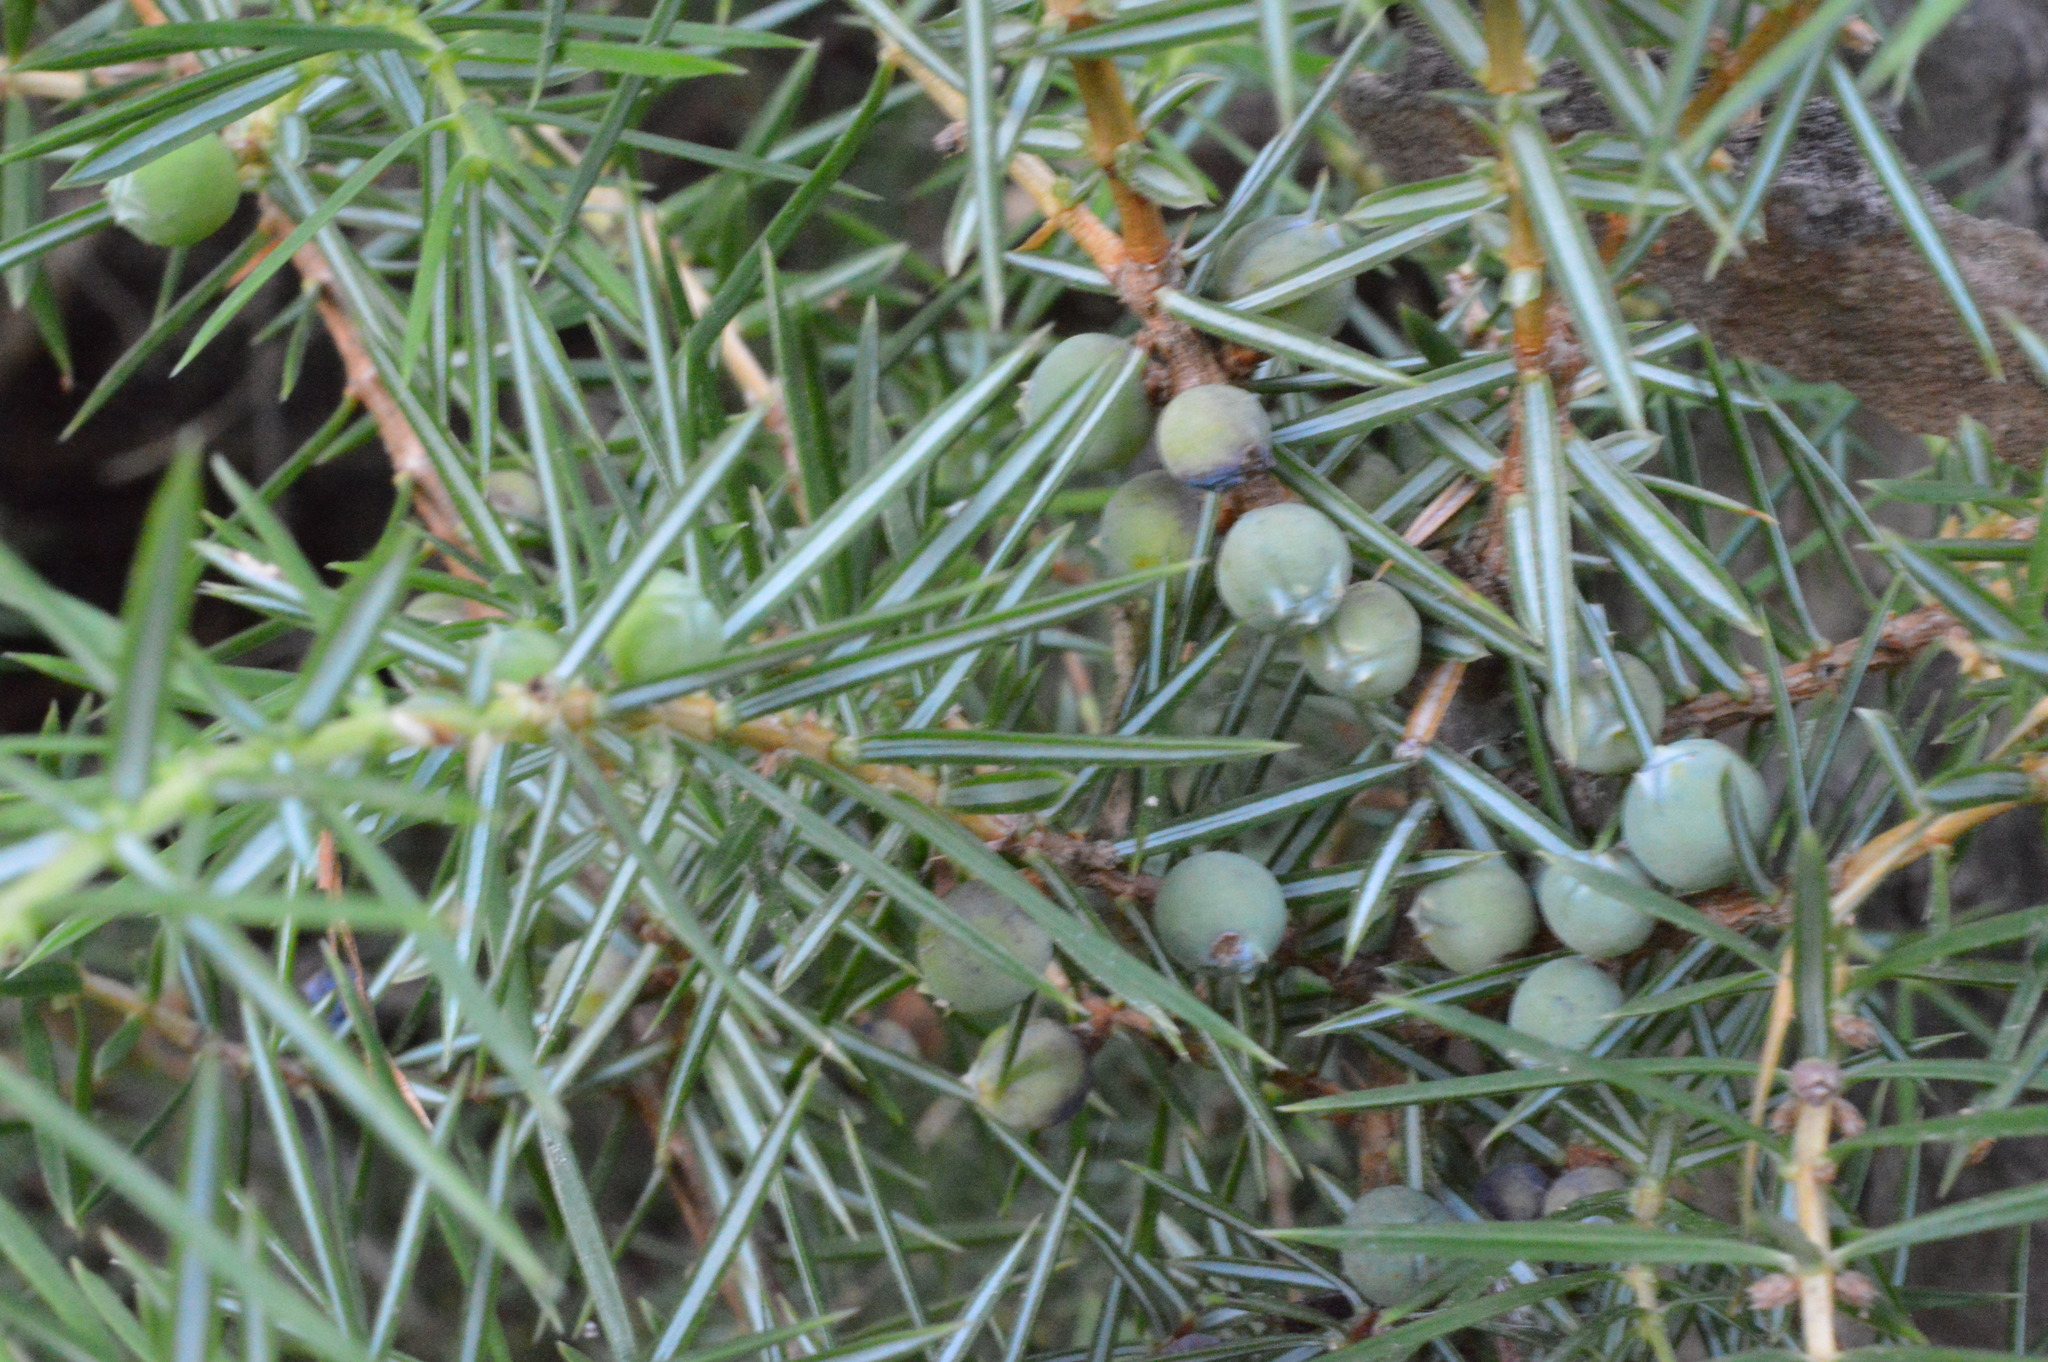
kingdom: Plantae
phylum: Tracheophyta
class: Pinopsida
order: Pinales
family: Cupressaceae
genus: Juniperus
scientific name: Juniperus communis
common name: Common juniper
